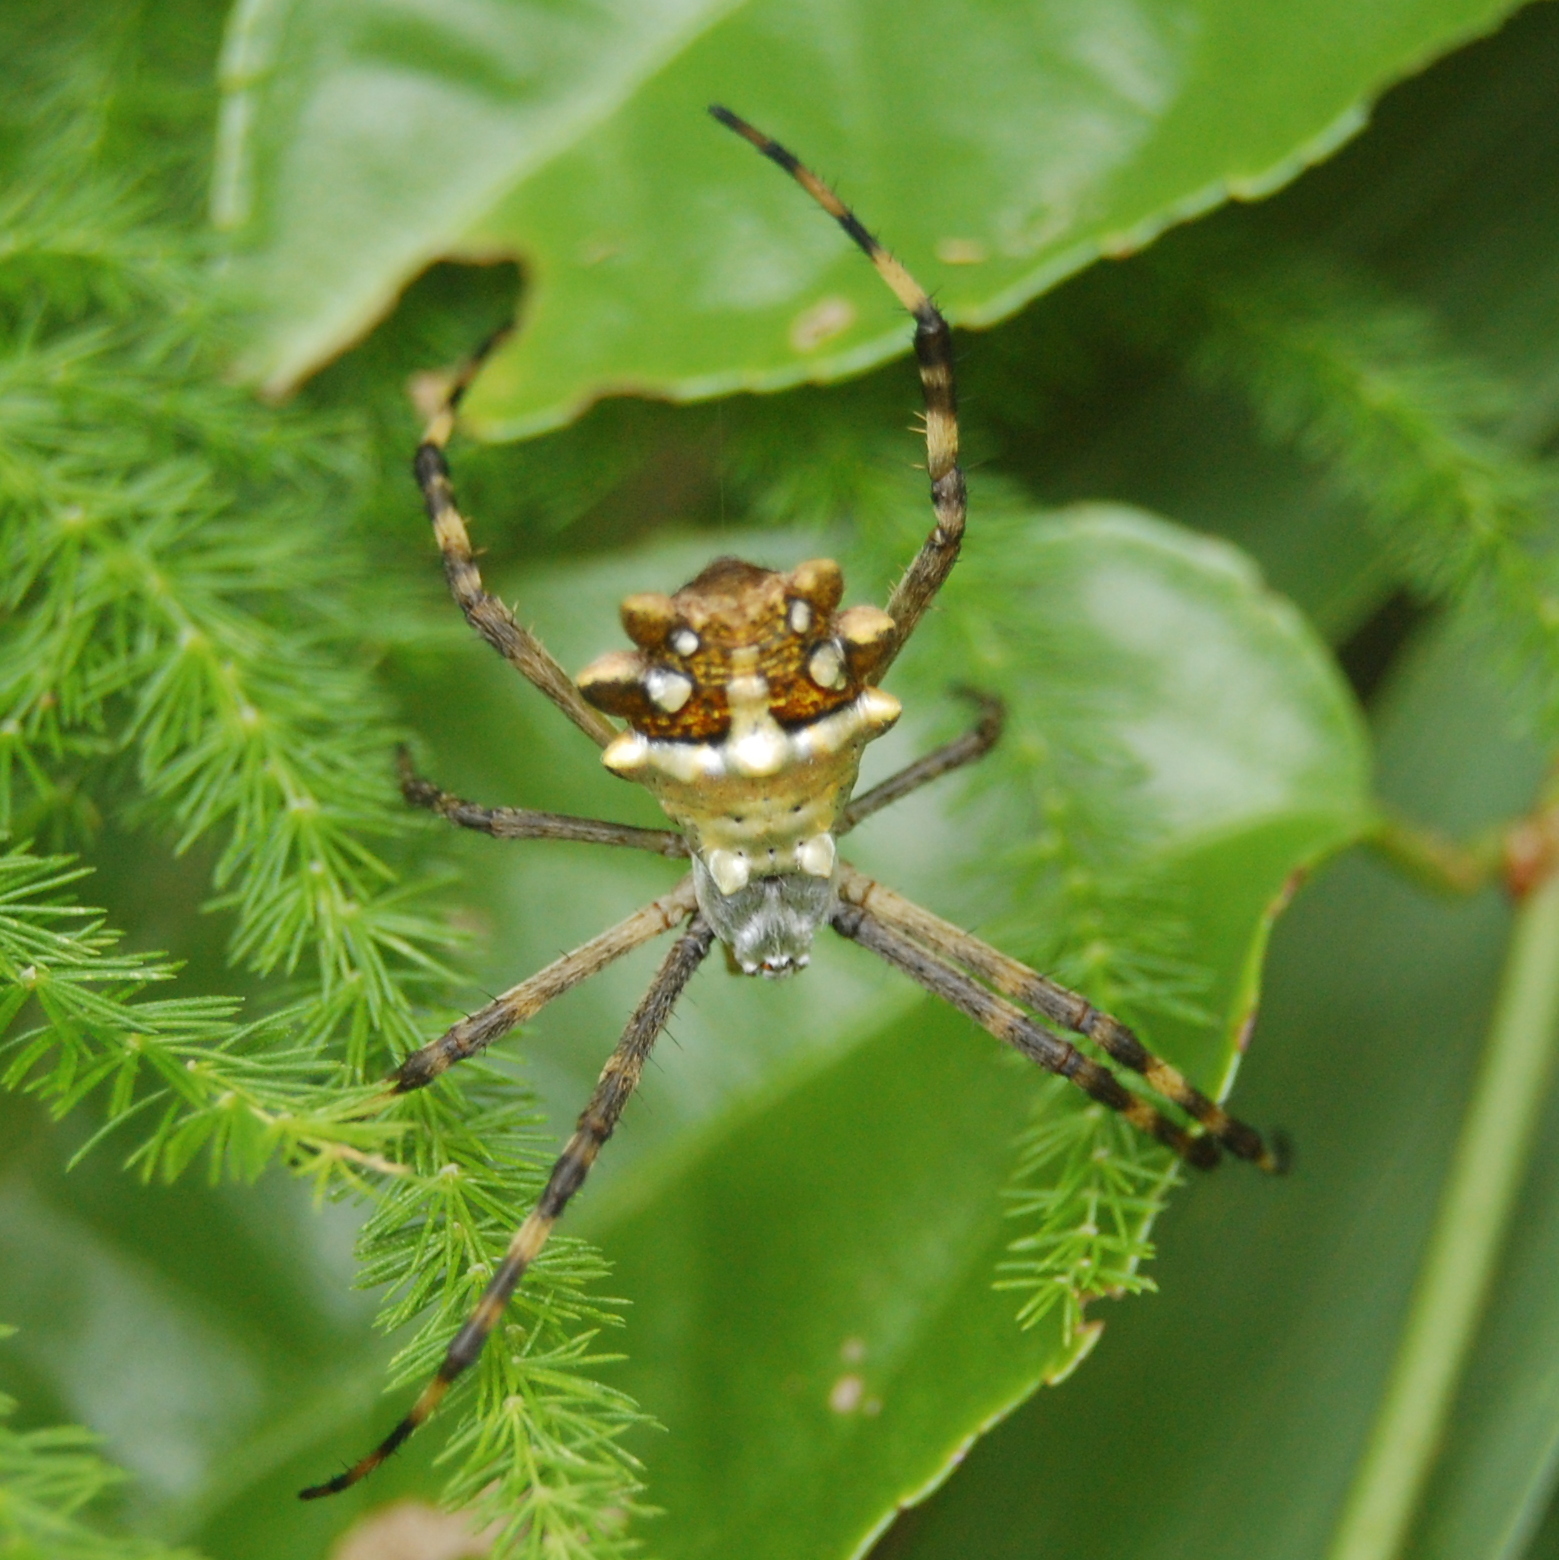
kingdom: Animalia
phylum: Arthropoda
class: Arachnida
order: Araneae
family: Araneidae
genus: Argiope
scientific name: Argiope argentata
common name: Orb weavers
